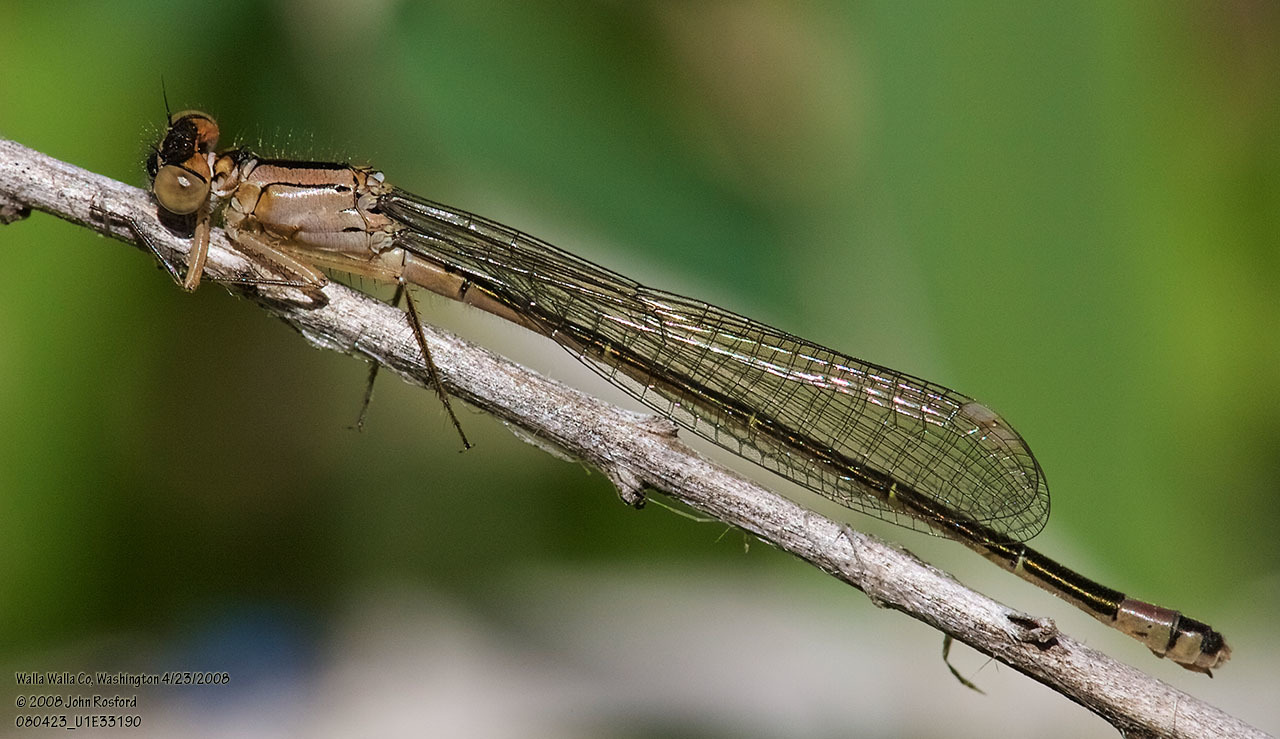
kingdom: Animalia
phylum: Arthropoda
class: Insecta
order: Odonata
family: Coenagrionidae
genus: Ischnura
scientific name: Ischnura cervula
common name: Pacific forktail
